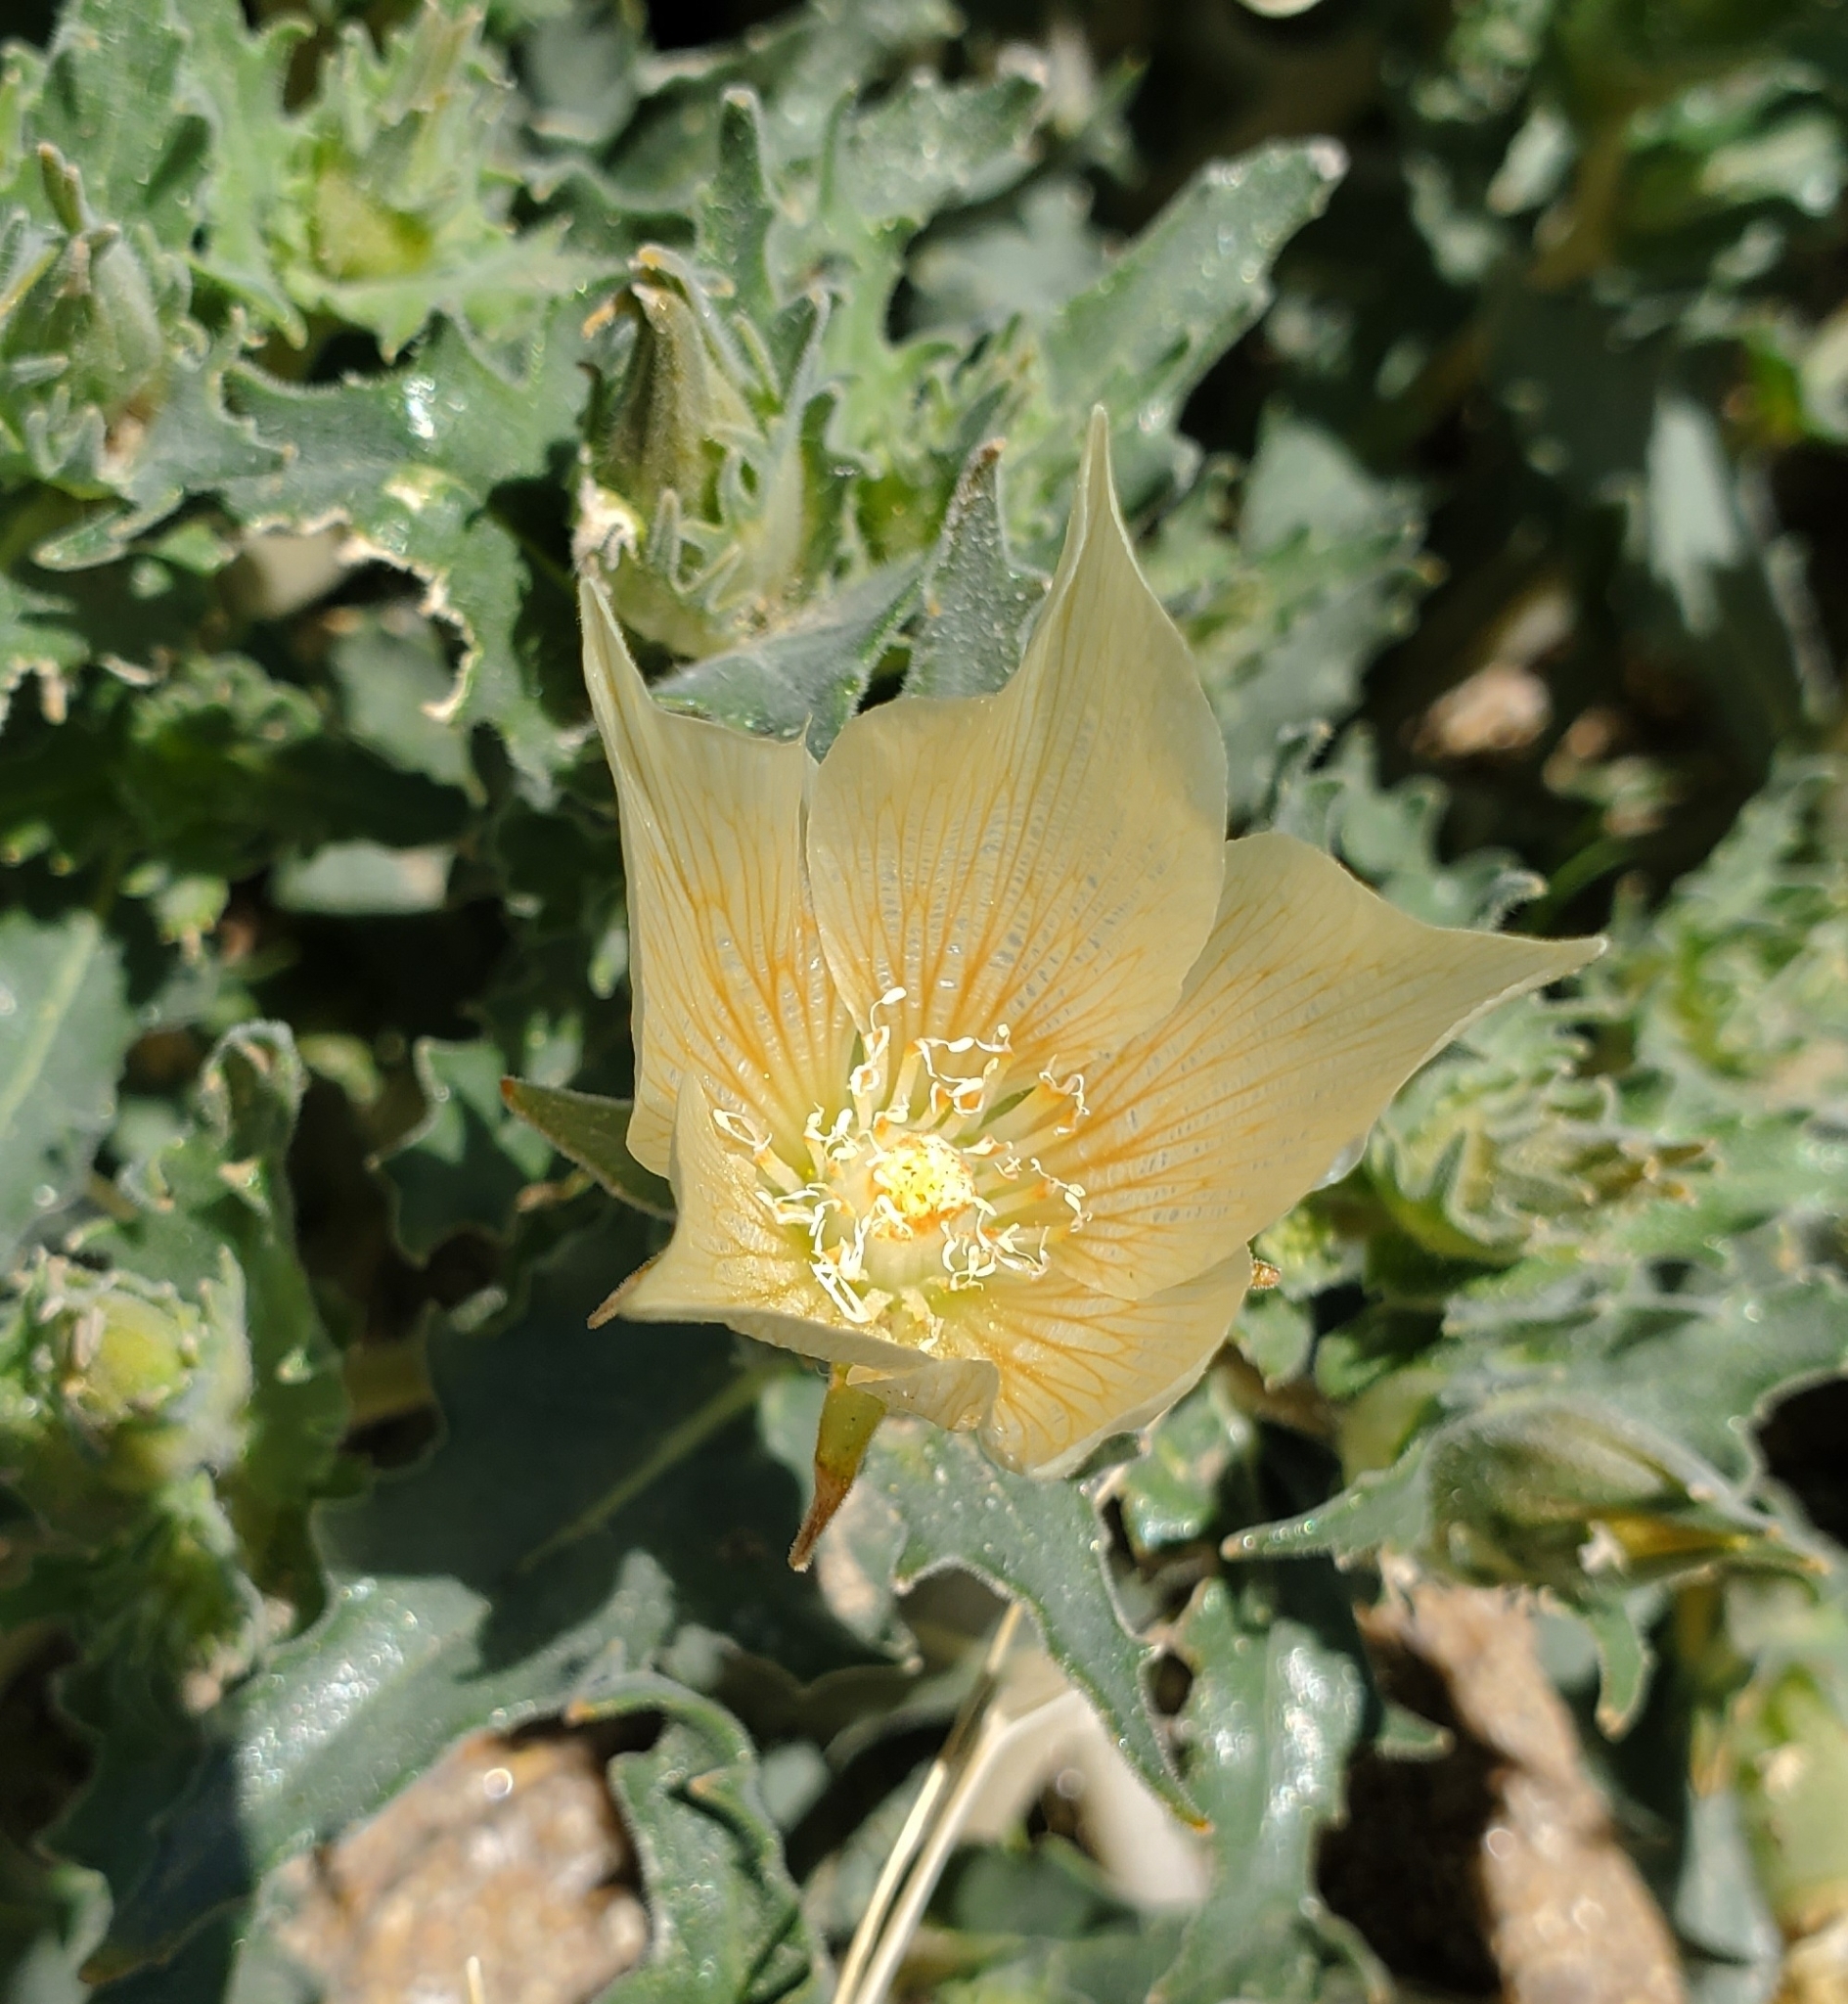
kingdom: Plantae
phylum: Tracheophyta
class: Magnoliopsida
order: Cornales
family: Loasaceae
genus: Mentzelia
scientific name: Mentzelia involucrata
